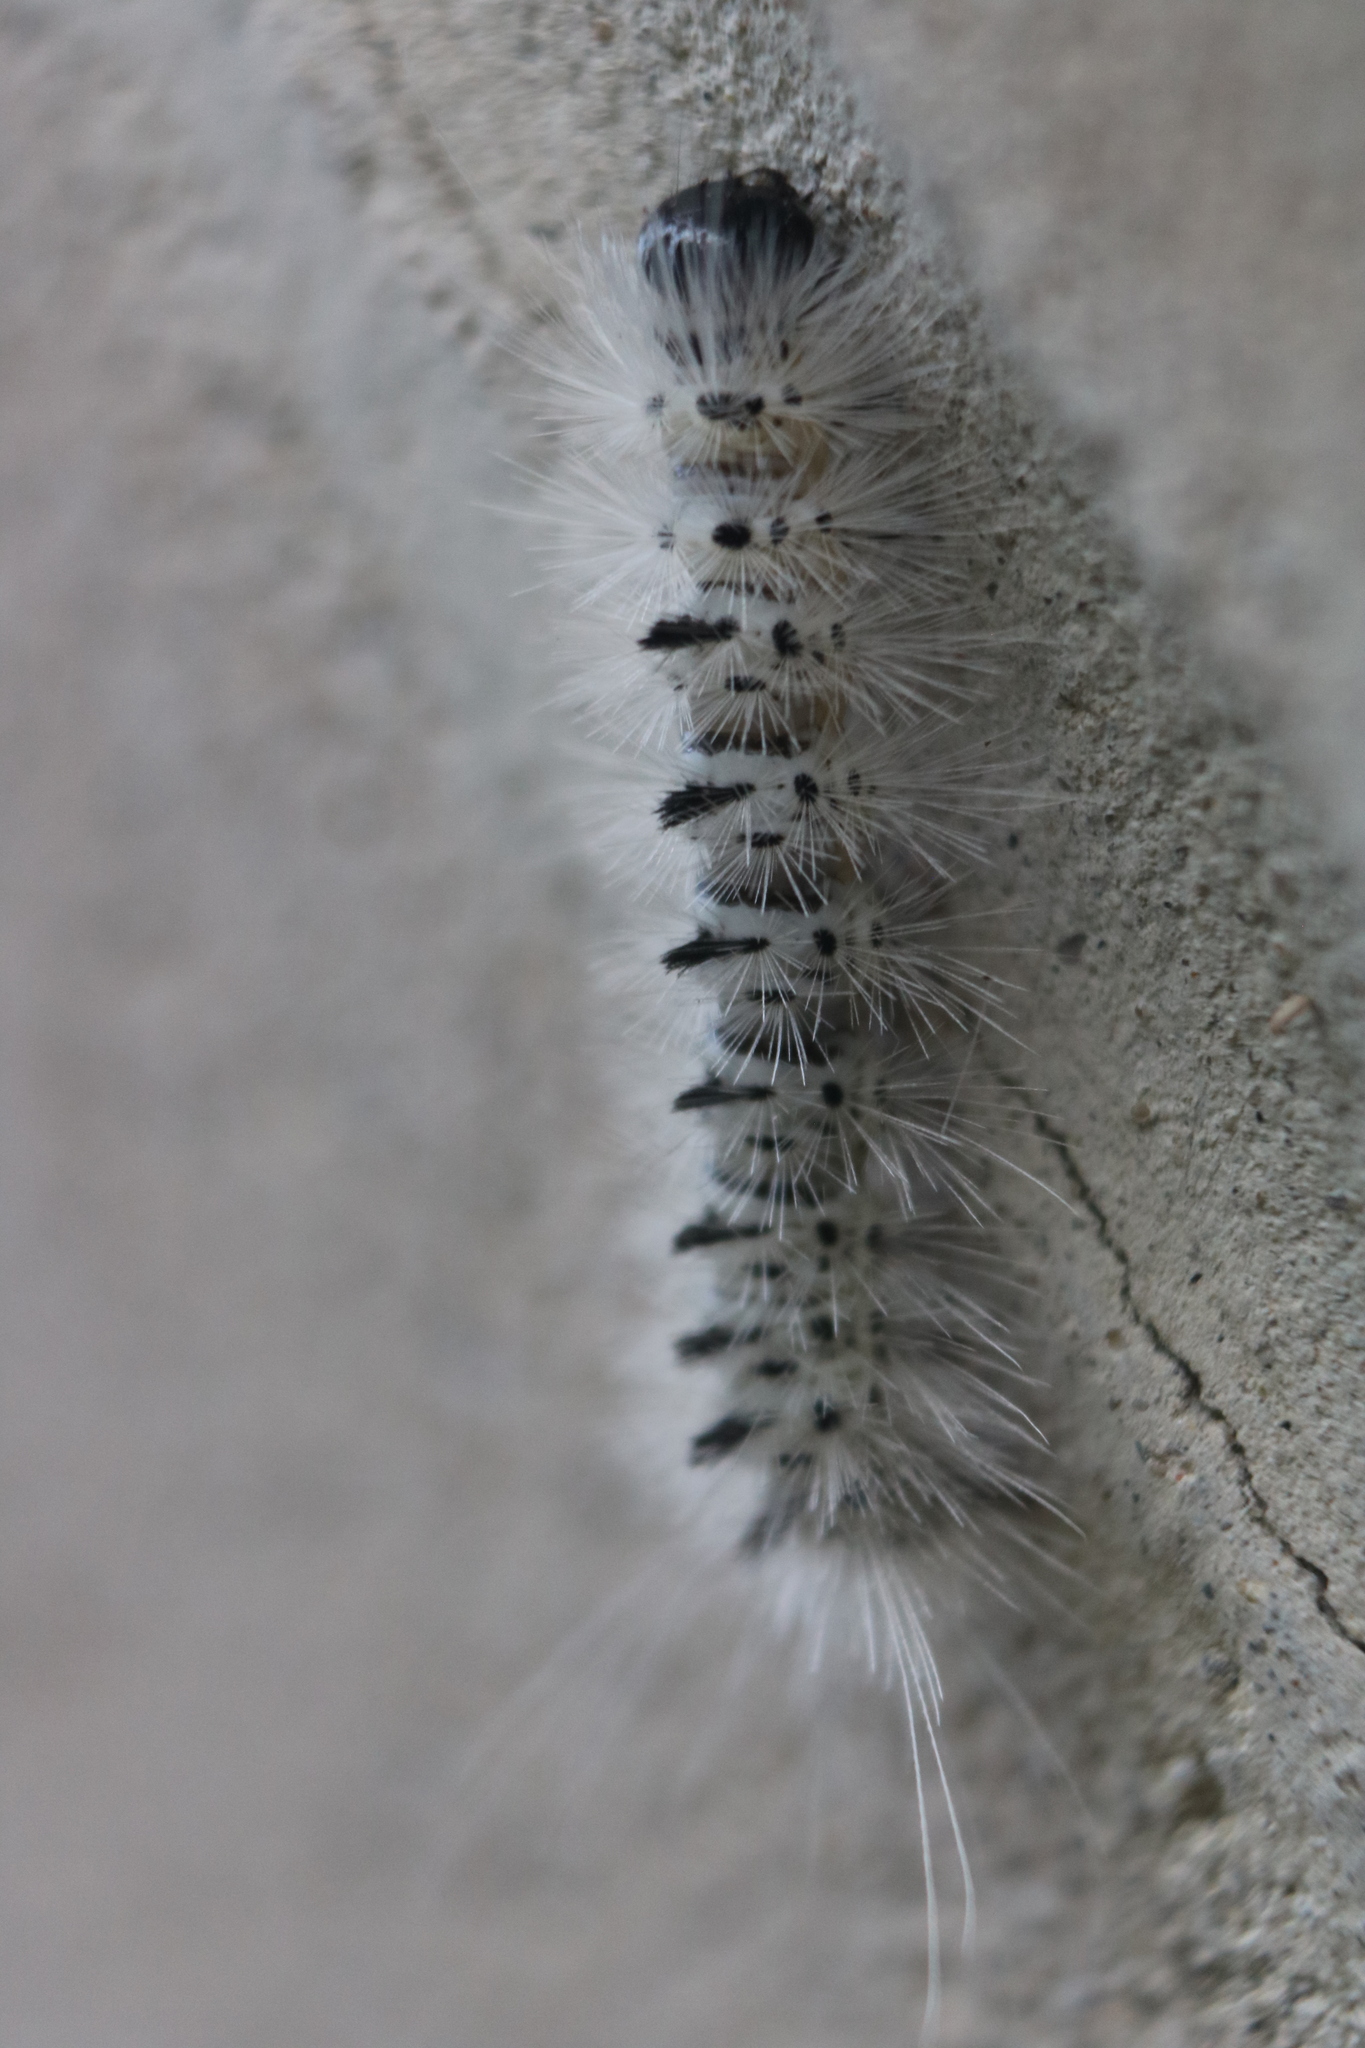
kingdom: Animalia
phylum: Arthropoda
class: Insecta
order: Lepidoptera
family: Erebidae
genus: Lophocampa
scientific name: Lophocampa caryae
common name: Hickory tussock moth
